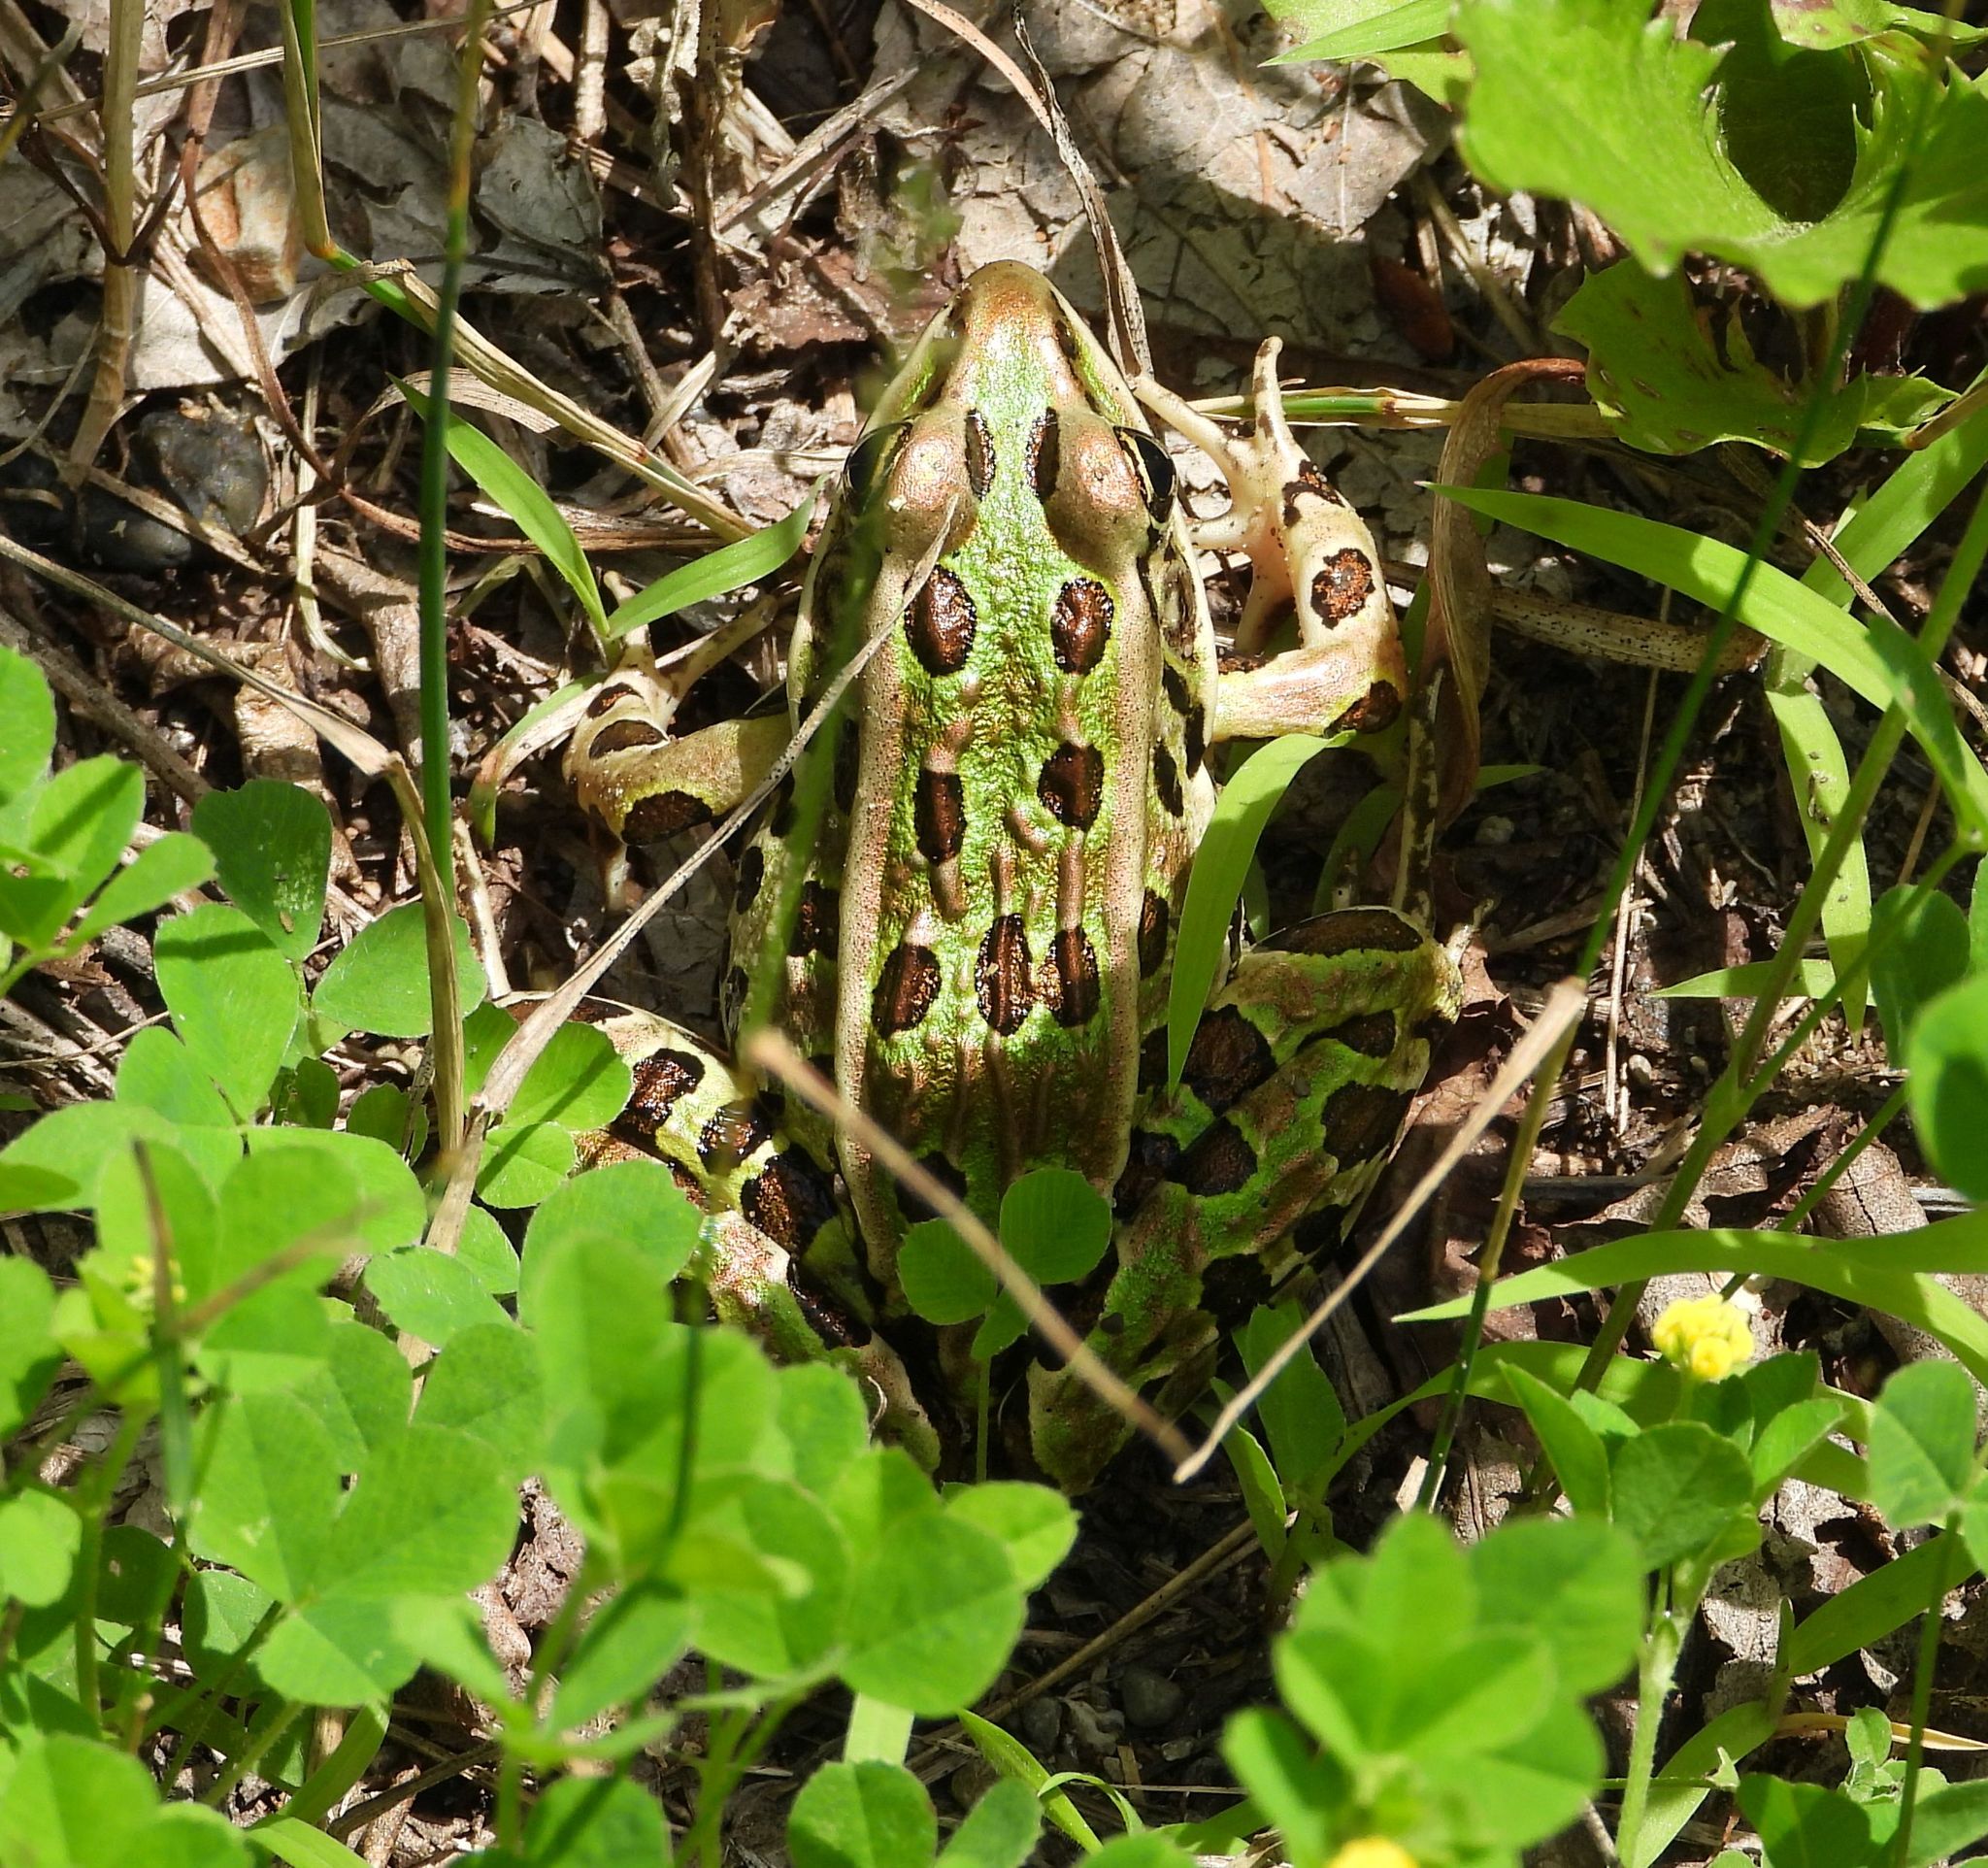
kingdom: Animalia
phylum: Chordata
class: Amphibia
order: Anura
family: Ranidae
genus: Lithobates
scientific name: Lithobates pipiens
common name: Northern leopard frog
